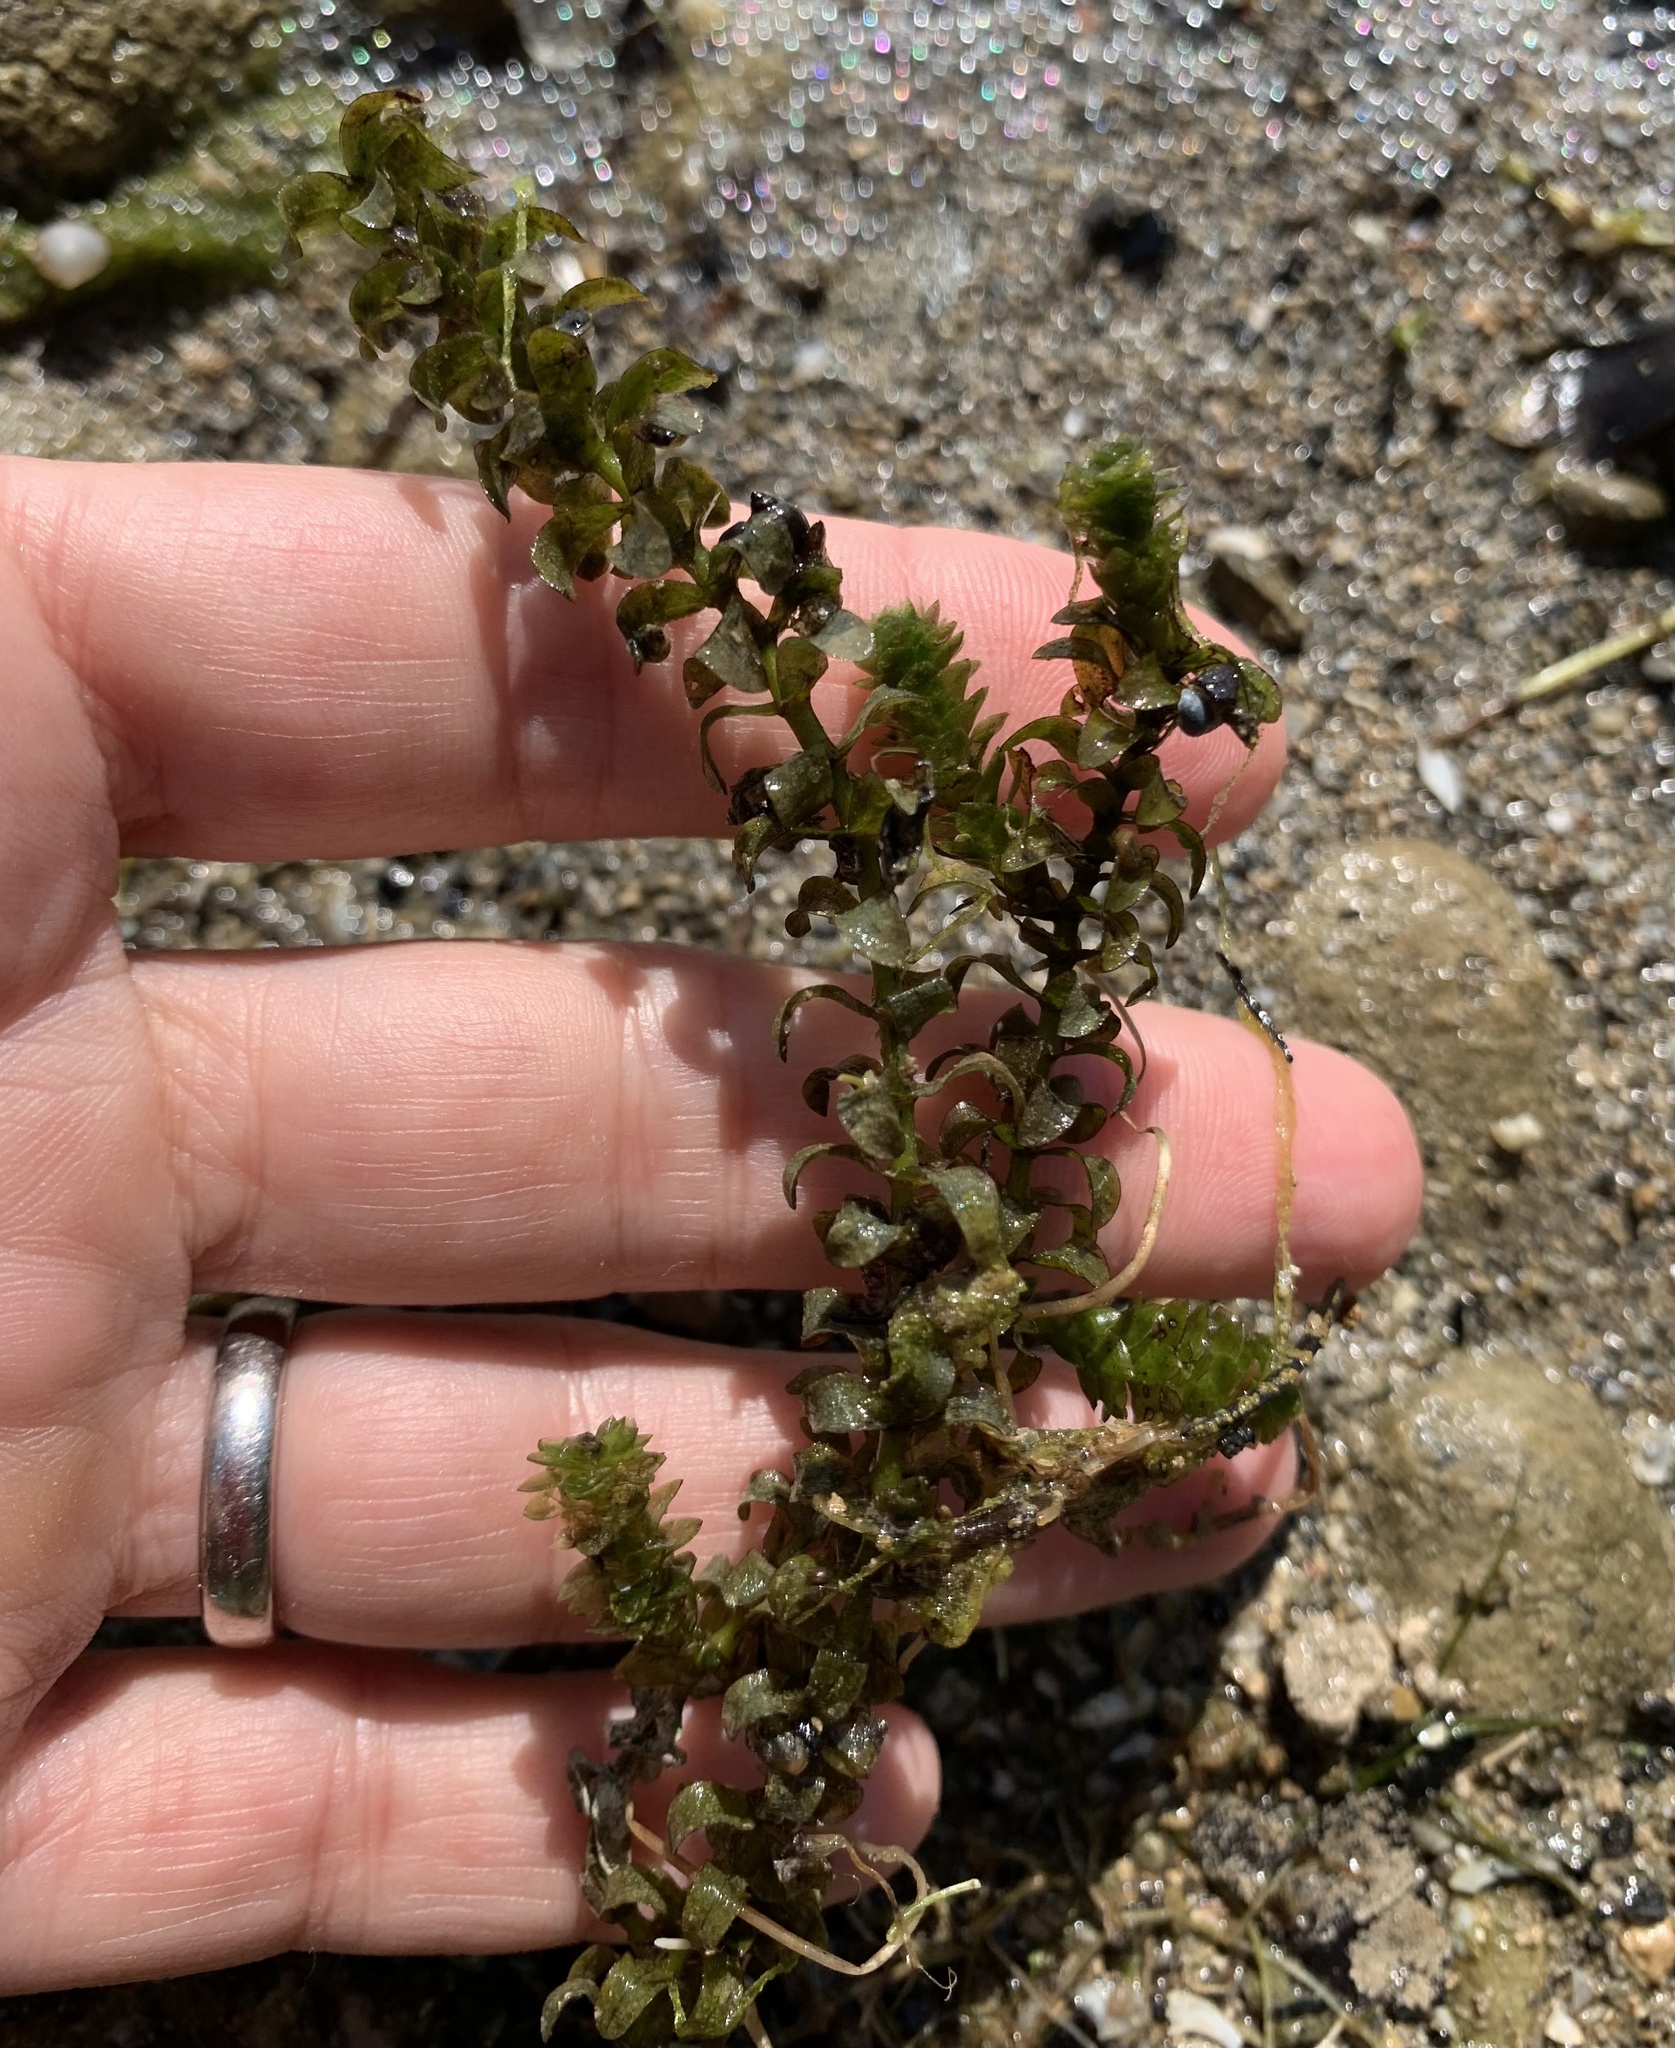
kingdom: Plantae
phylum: Tracheophyta
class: Liliopsida
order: Alismatales
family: Hydrocharitaceae
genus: Elodea
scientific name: Elodea canadensis
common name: Canadian waterweed
